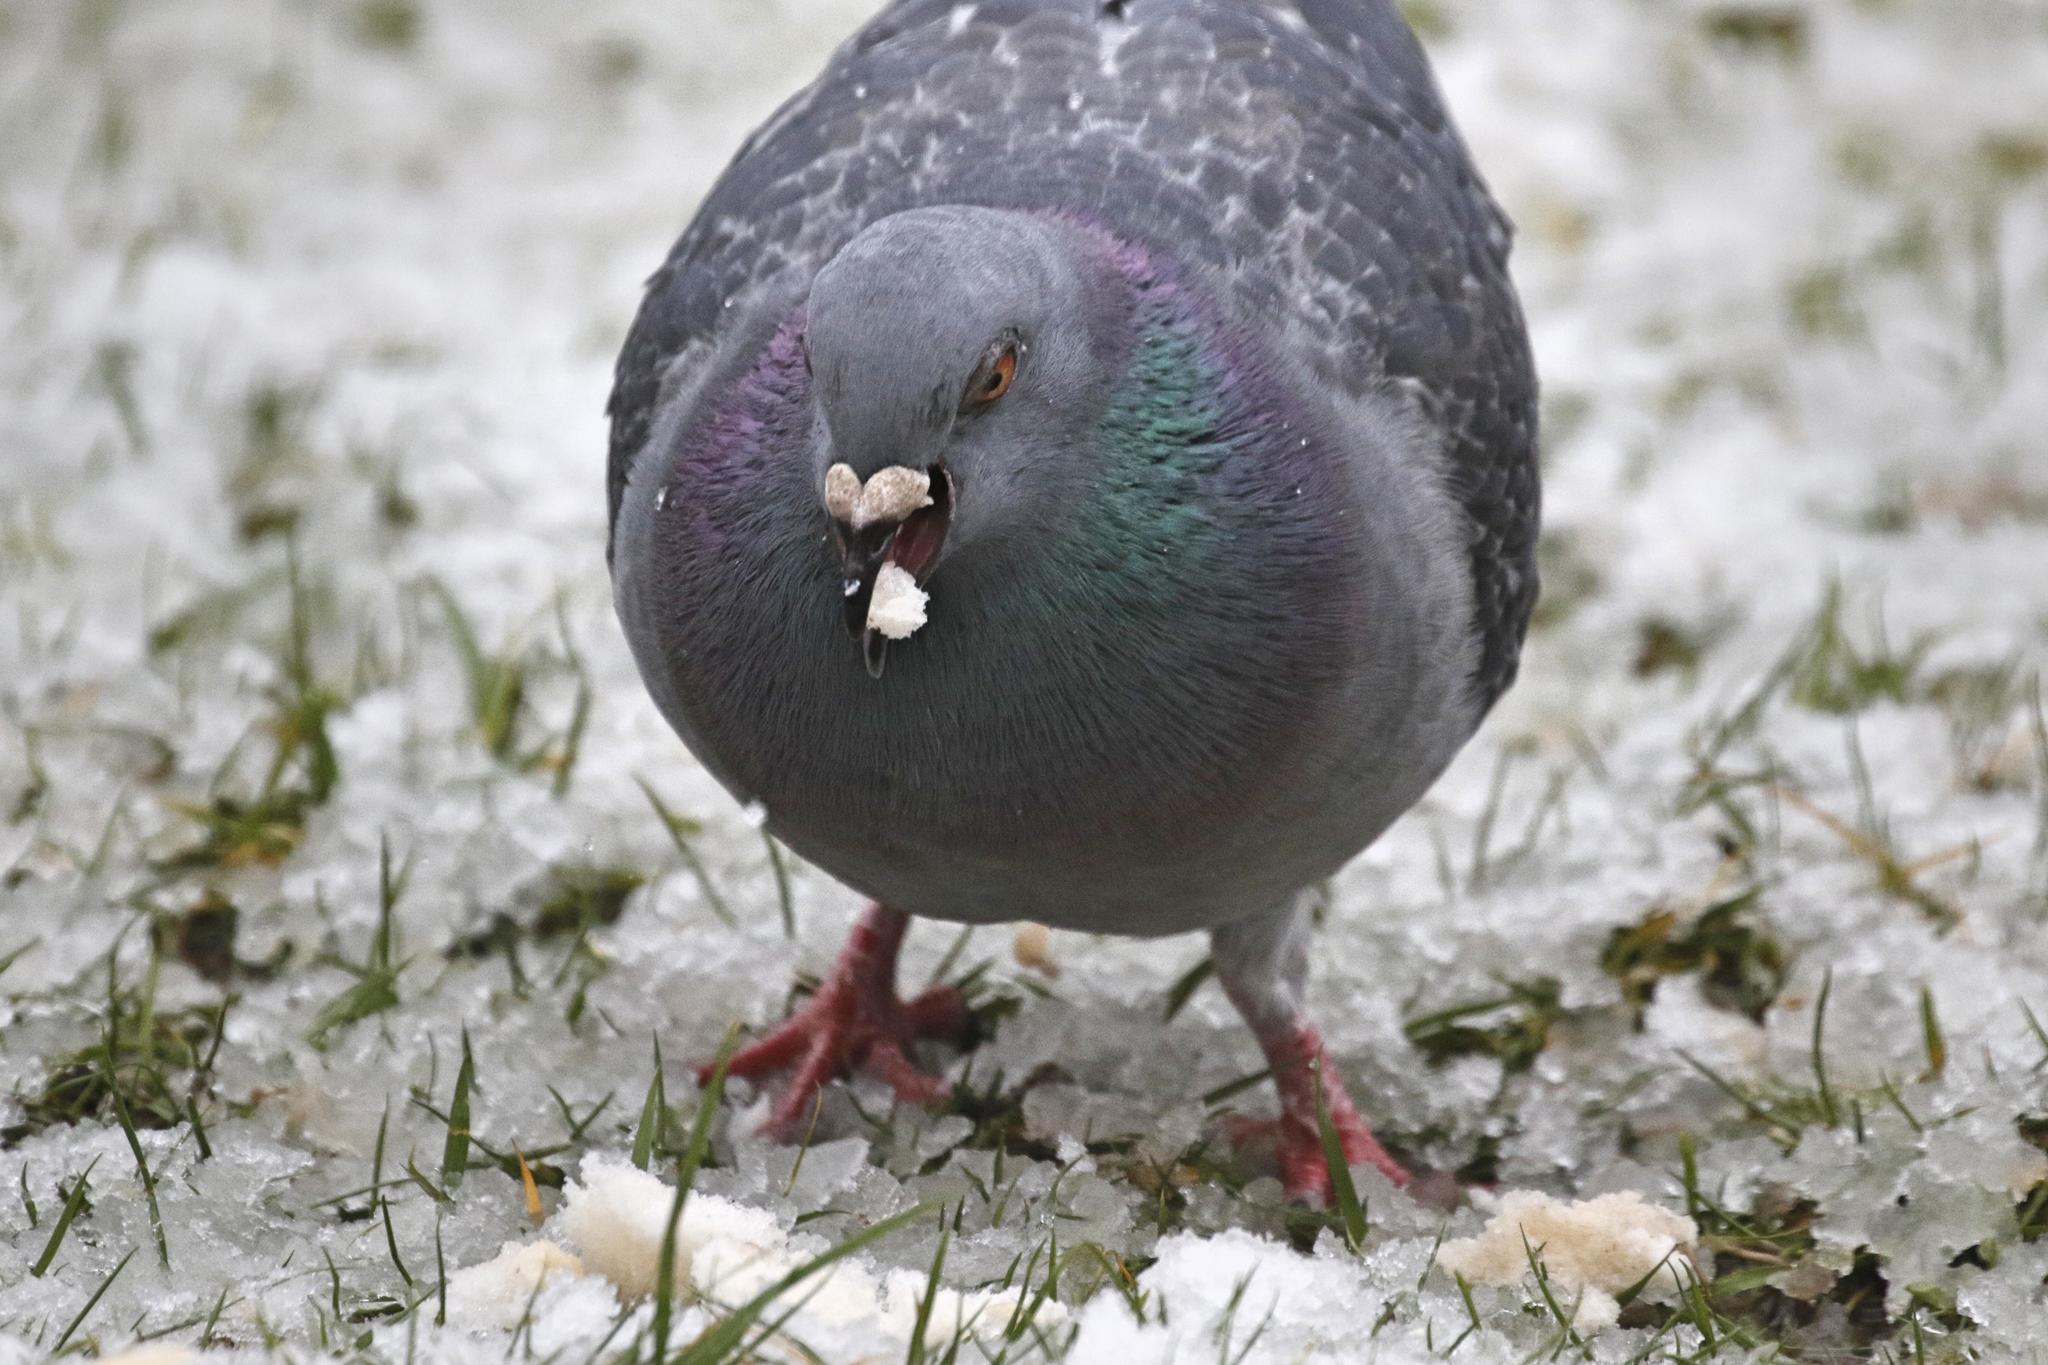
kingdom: Animalia
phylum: Chordata
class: Aves
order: Columbiformes
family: Columbidae
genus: Columba
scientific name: Columba livia
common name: Rock pigeon
